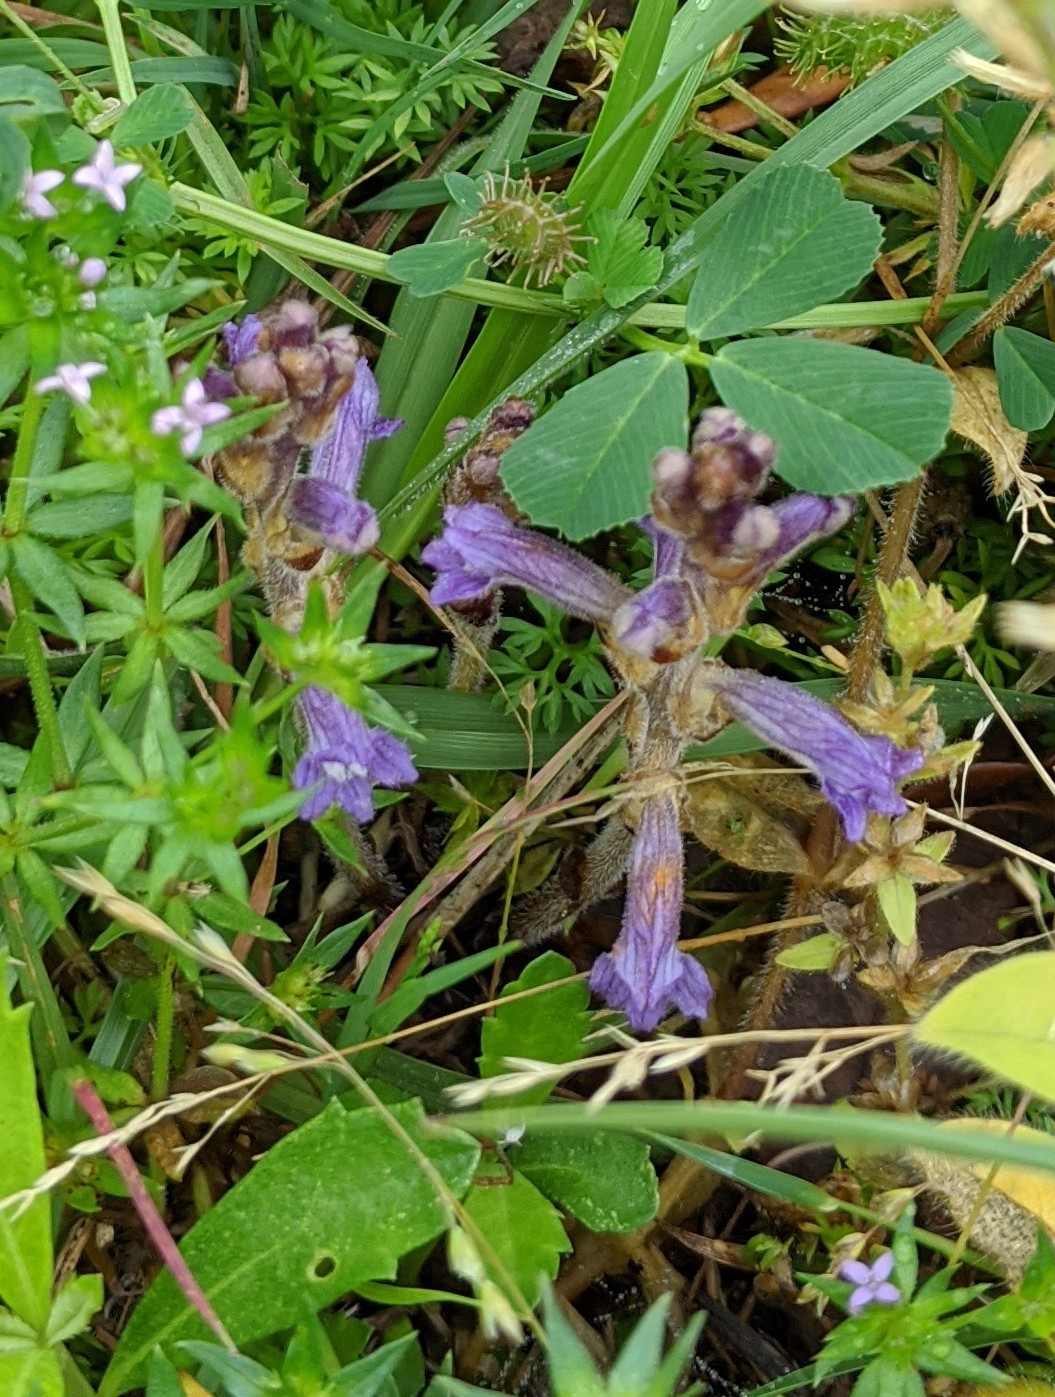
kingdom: Plantae
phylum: Tracheophyta
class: Magnoliopsida
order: Lamiales
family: Orobanchaceae
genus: Phelipanche
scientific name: Phelipanche mutelii
